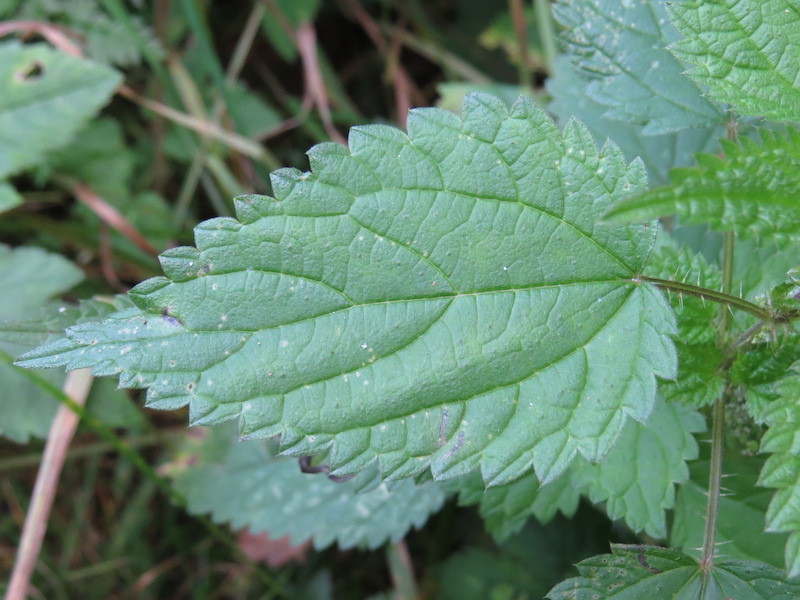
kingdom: Plantae
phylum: Tracheophyta
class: Magnoliopsida
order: Rosales
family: Urticaceae
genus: Urtica
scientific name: Urtica dioica
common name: Common nettle
